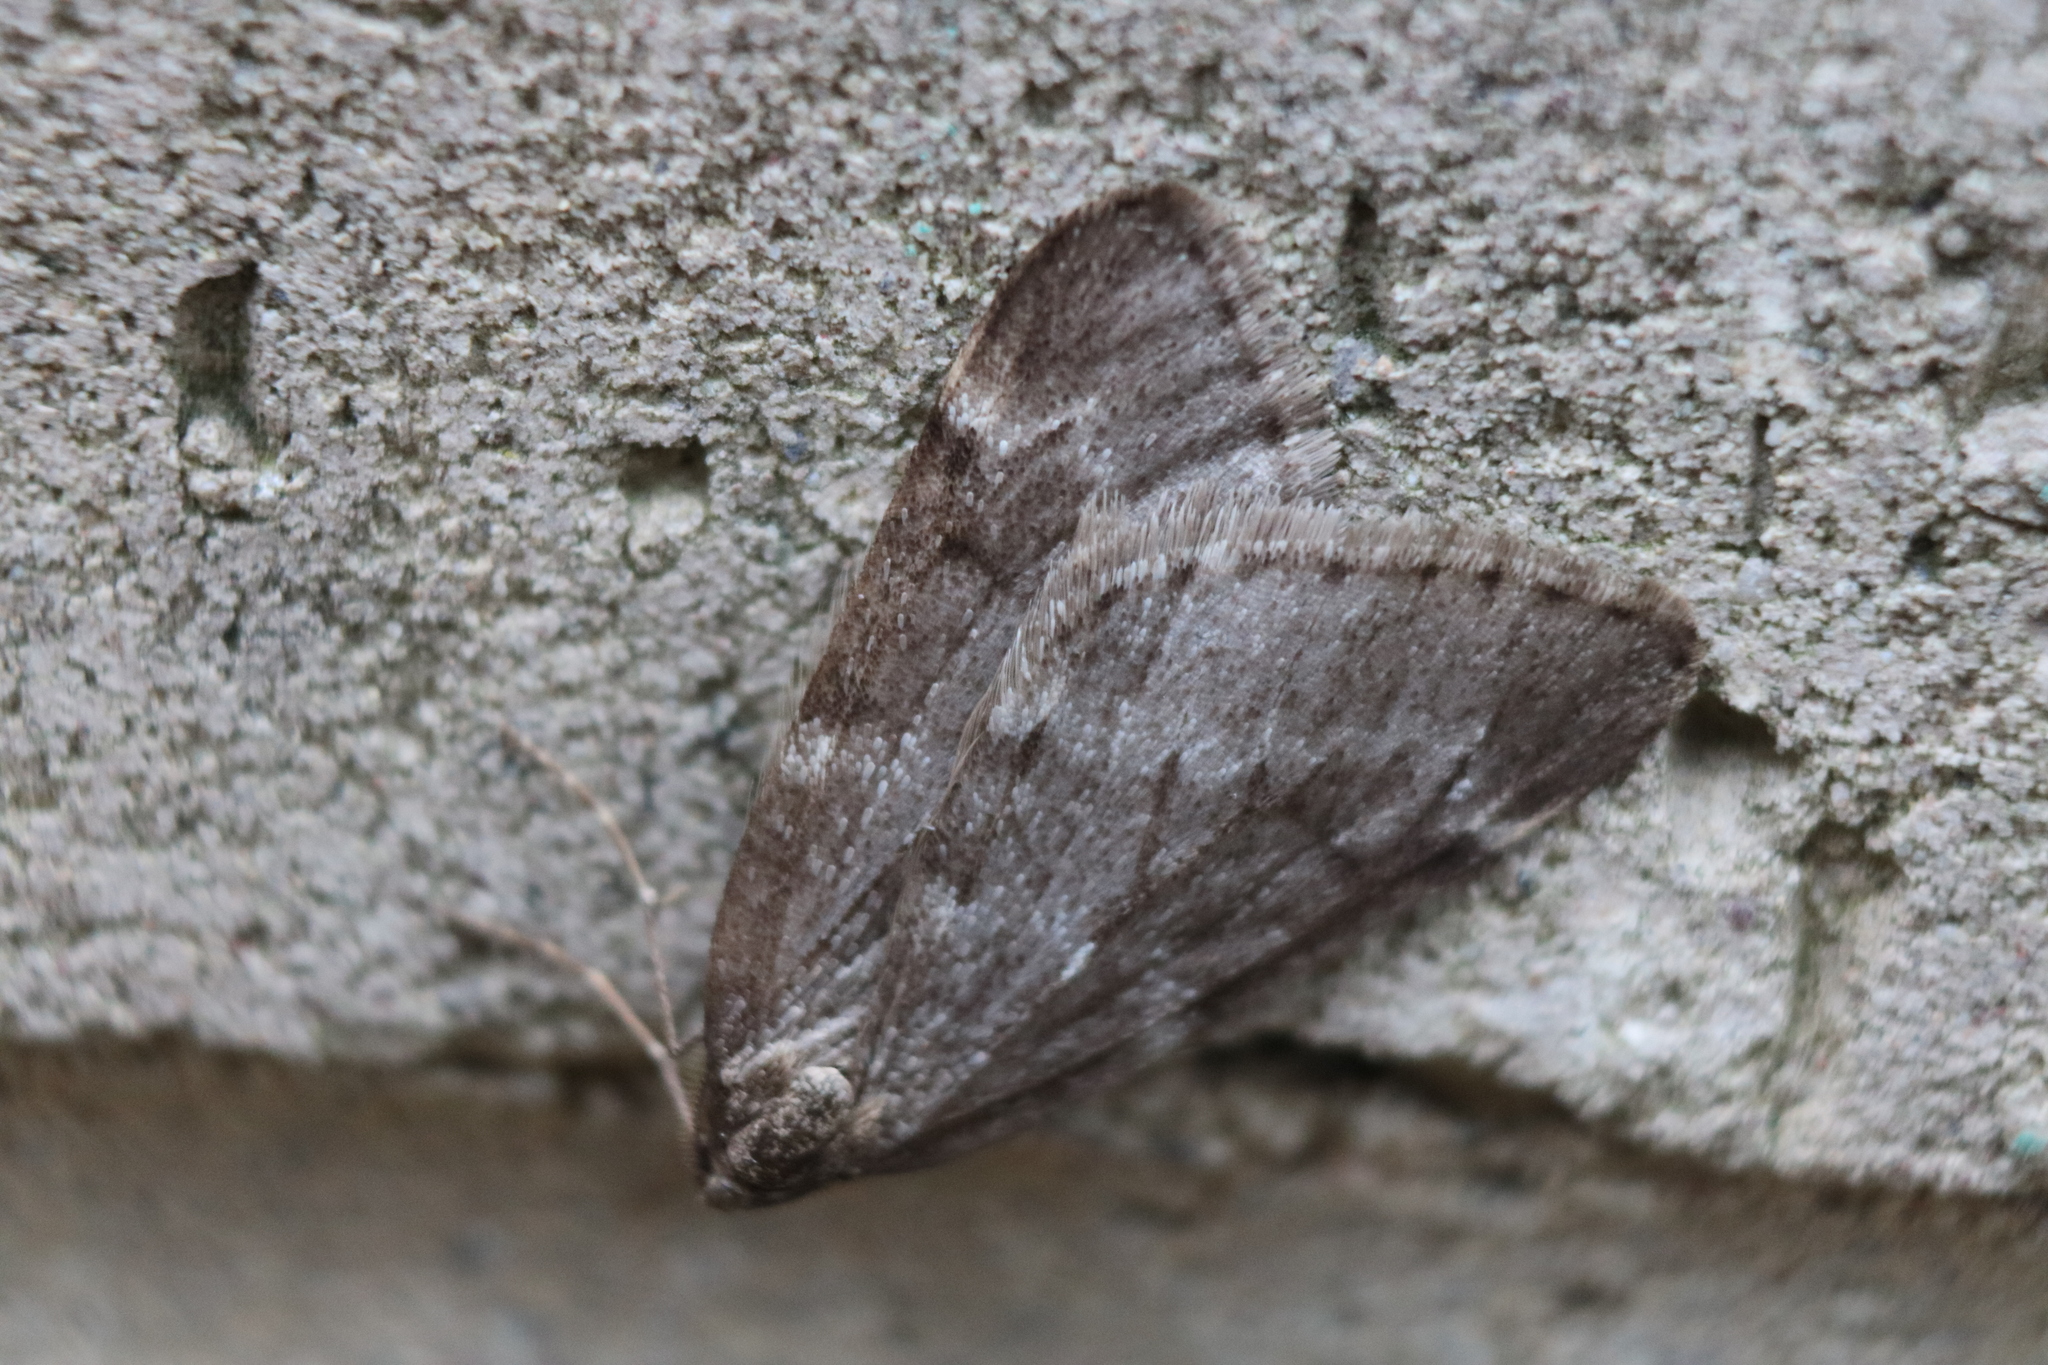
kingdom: Animalia
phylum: Arthropoda
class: Insecta
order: Lepidoptera
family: Geometridae
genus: Alsophila
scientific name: Alsophila pometaria
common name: Fall cankerworm
